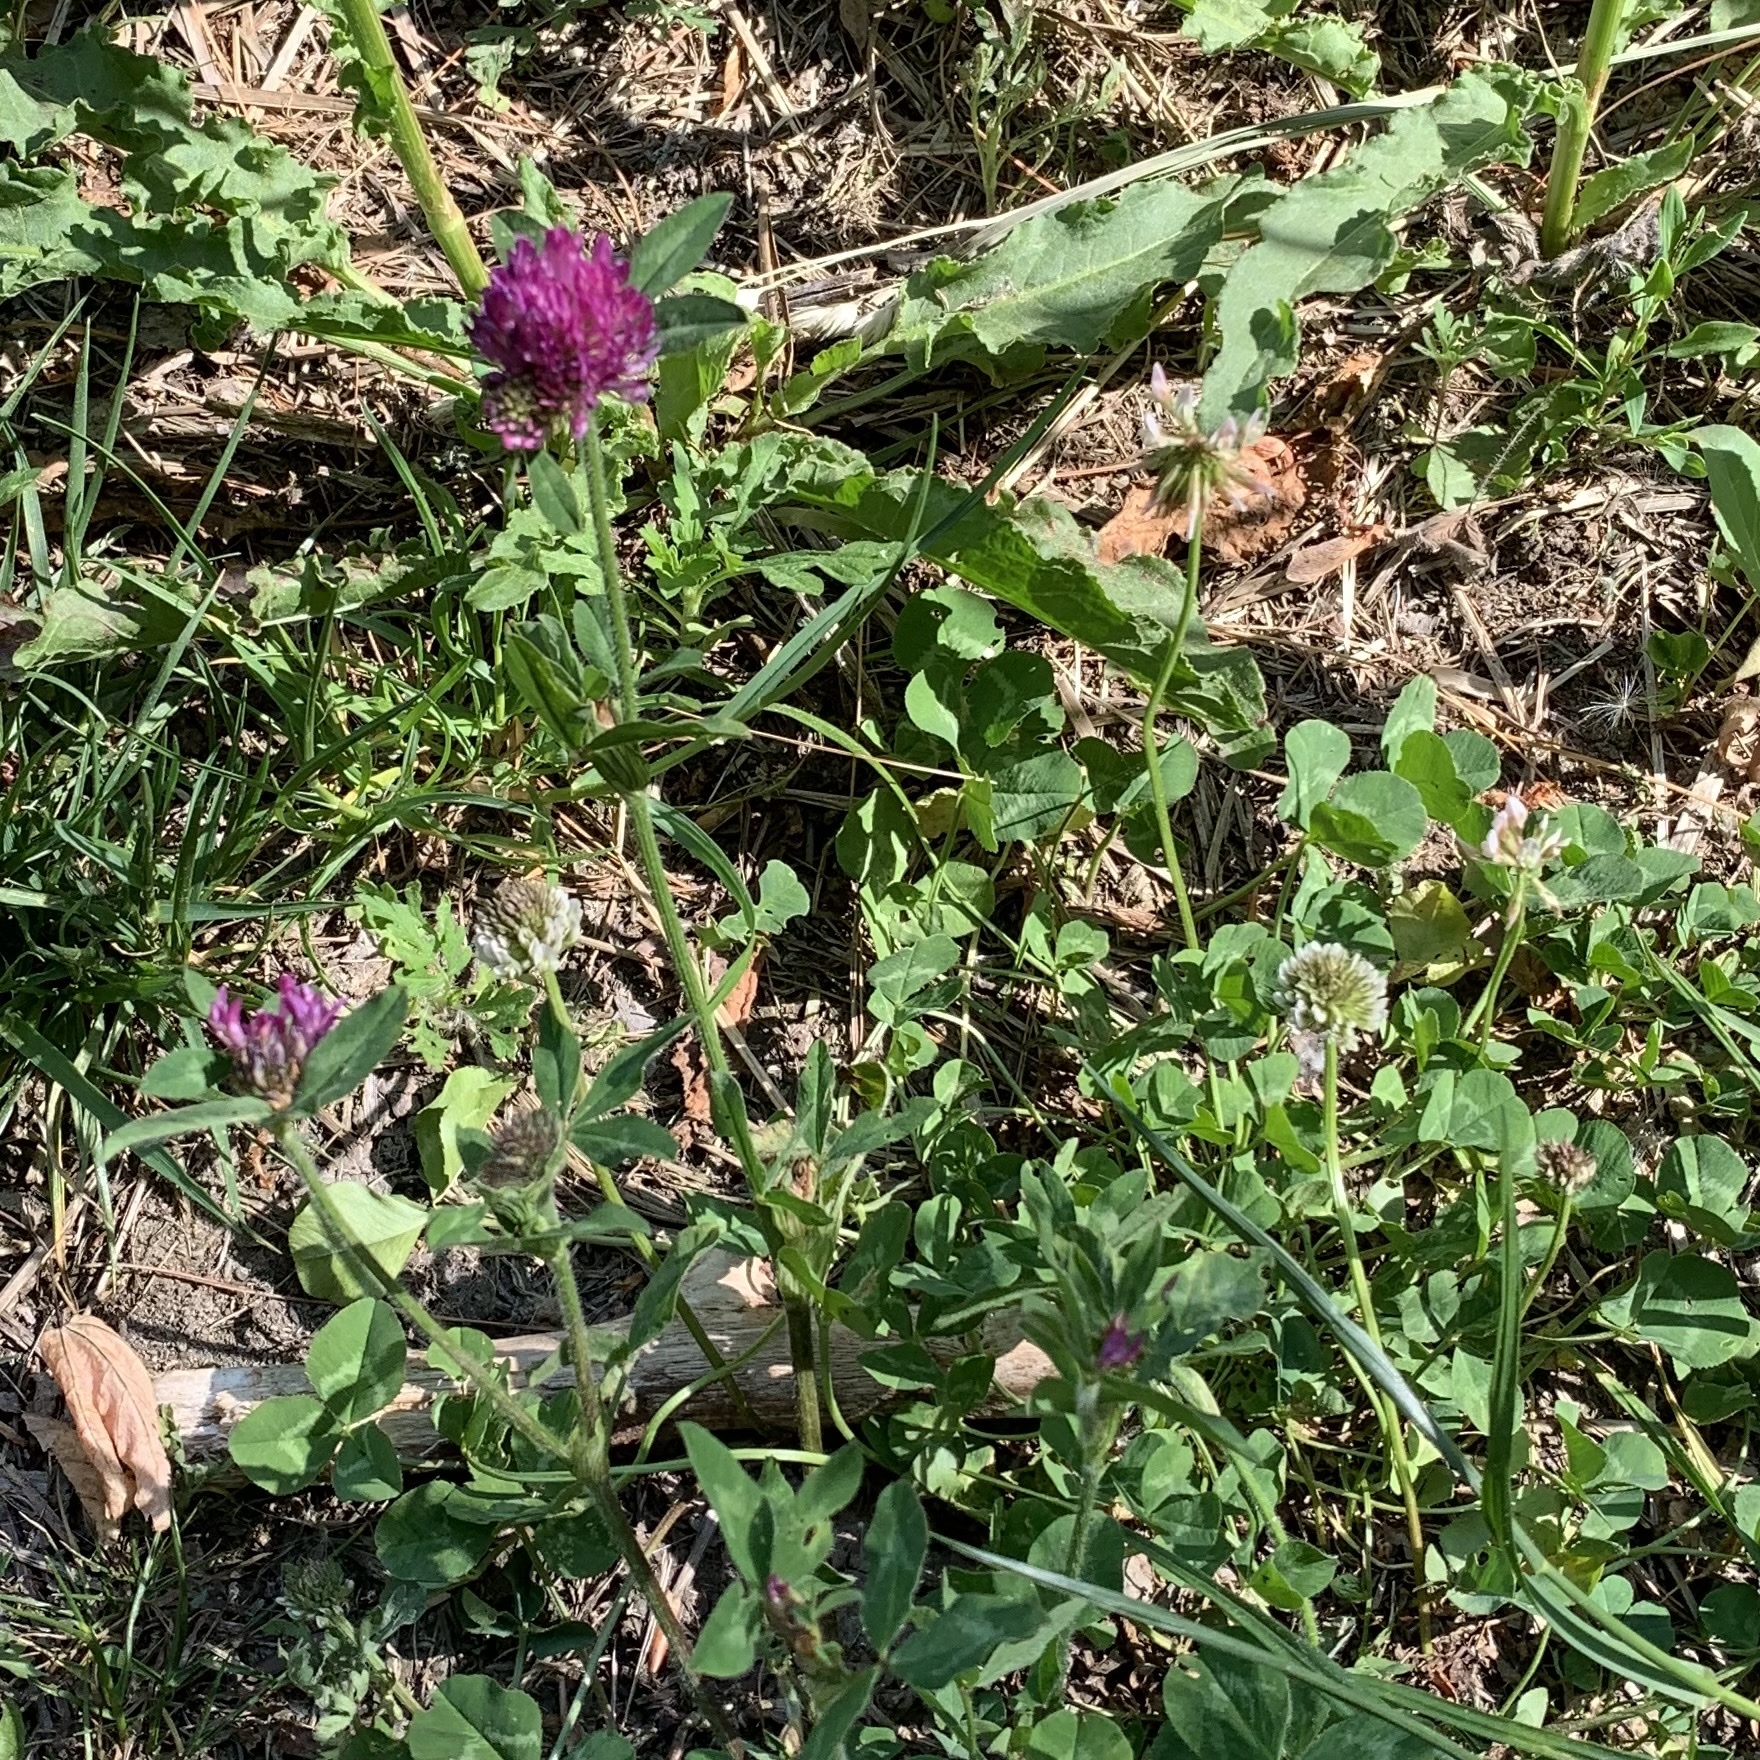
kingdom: Plantae
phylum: Tracheophyta
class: Magnoliopsida
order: Fabales
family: Fabaceae
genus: Trifolium
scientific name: Trifolium pratense
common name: Red clover
